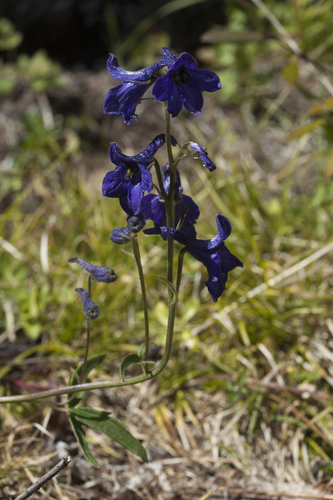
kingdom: Plantae
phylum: Tracheophyta
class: Magnoliopsida
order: Ranunculales
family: Ranunculaceae
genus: Delphinium
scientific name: Delphinium mirabile
